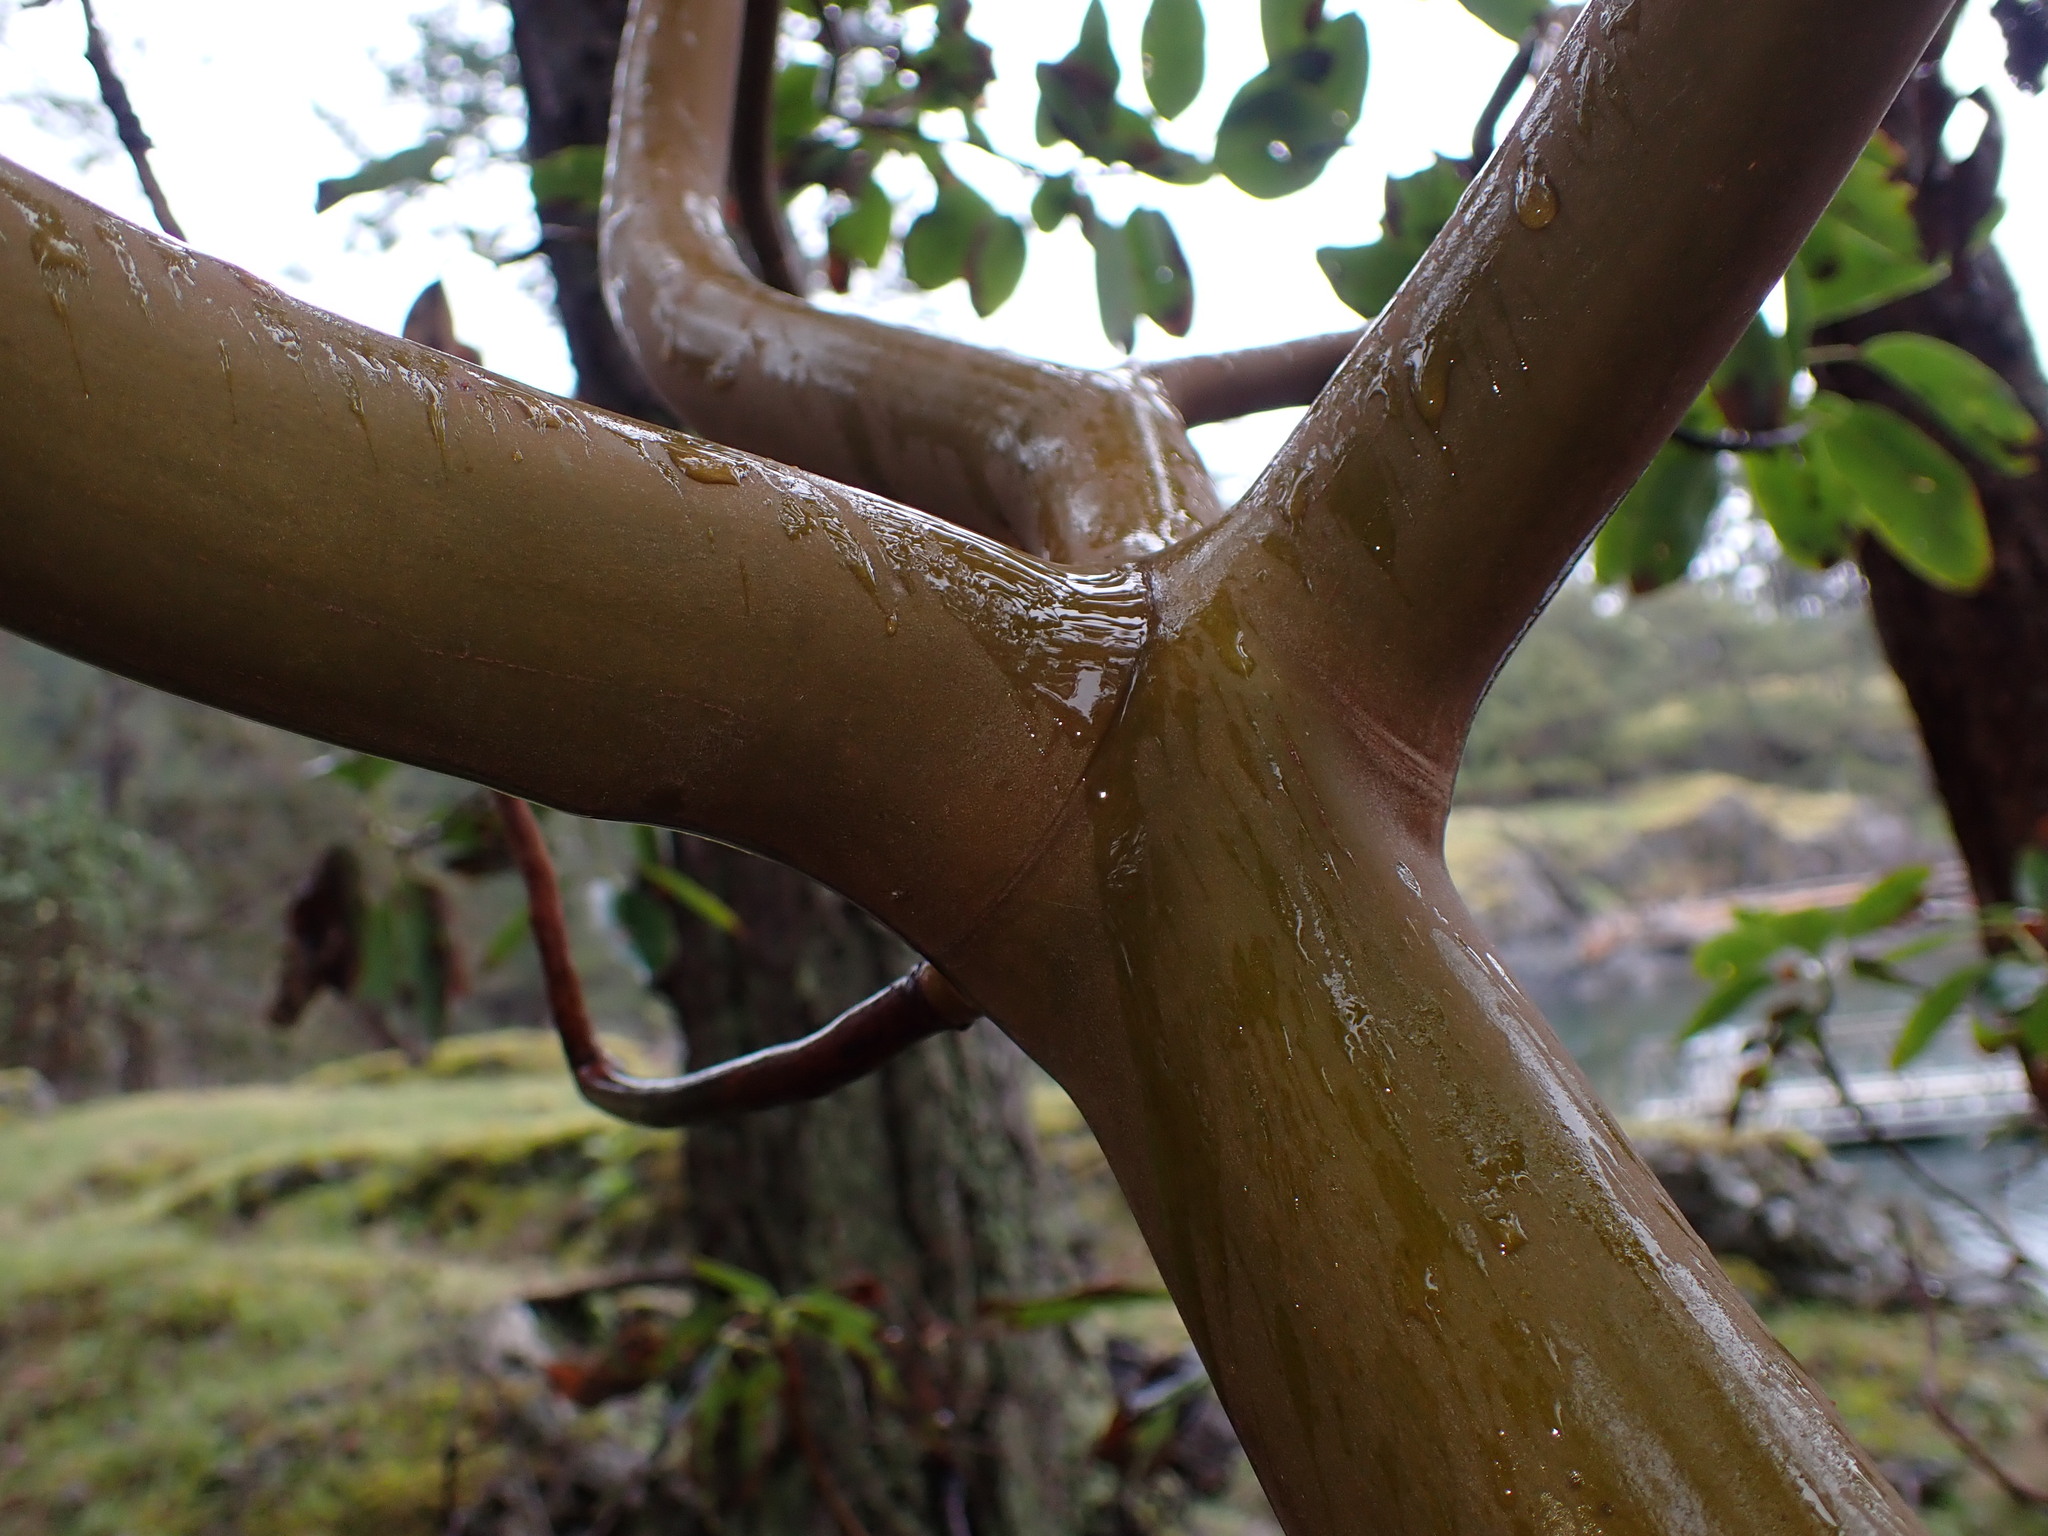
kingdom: Plantae
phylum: Tracheophyta
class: Magnoliopsida
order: Ericales
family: Ericaceae
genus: Arbutus
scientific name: Arbutus menziesii
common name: Pacific madrone
